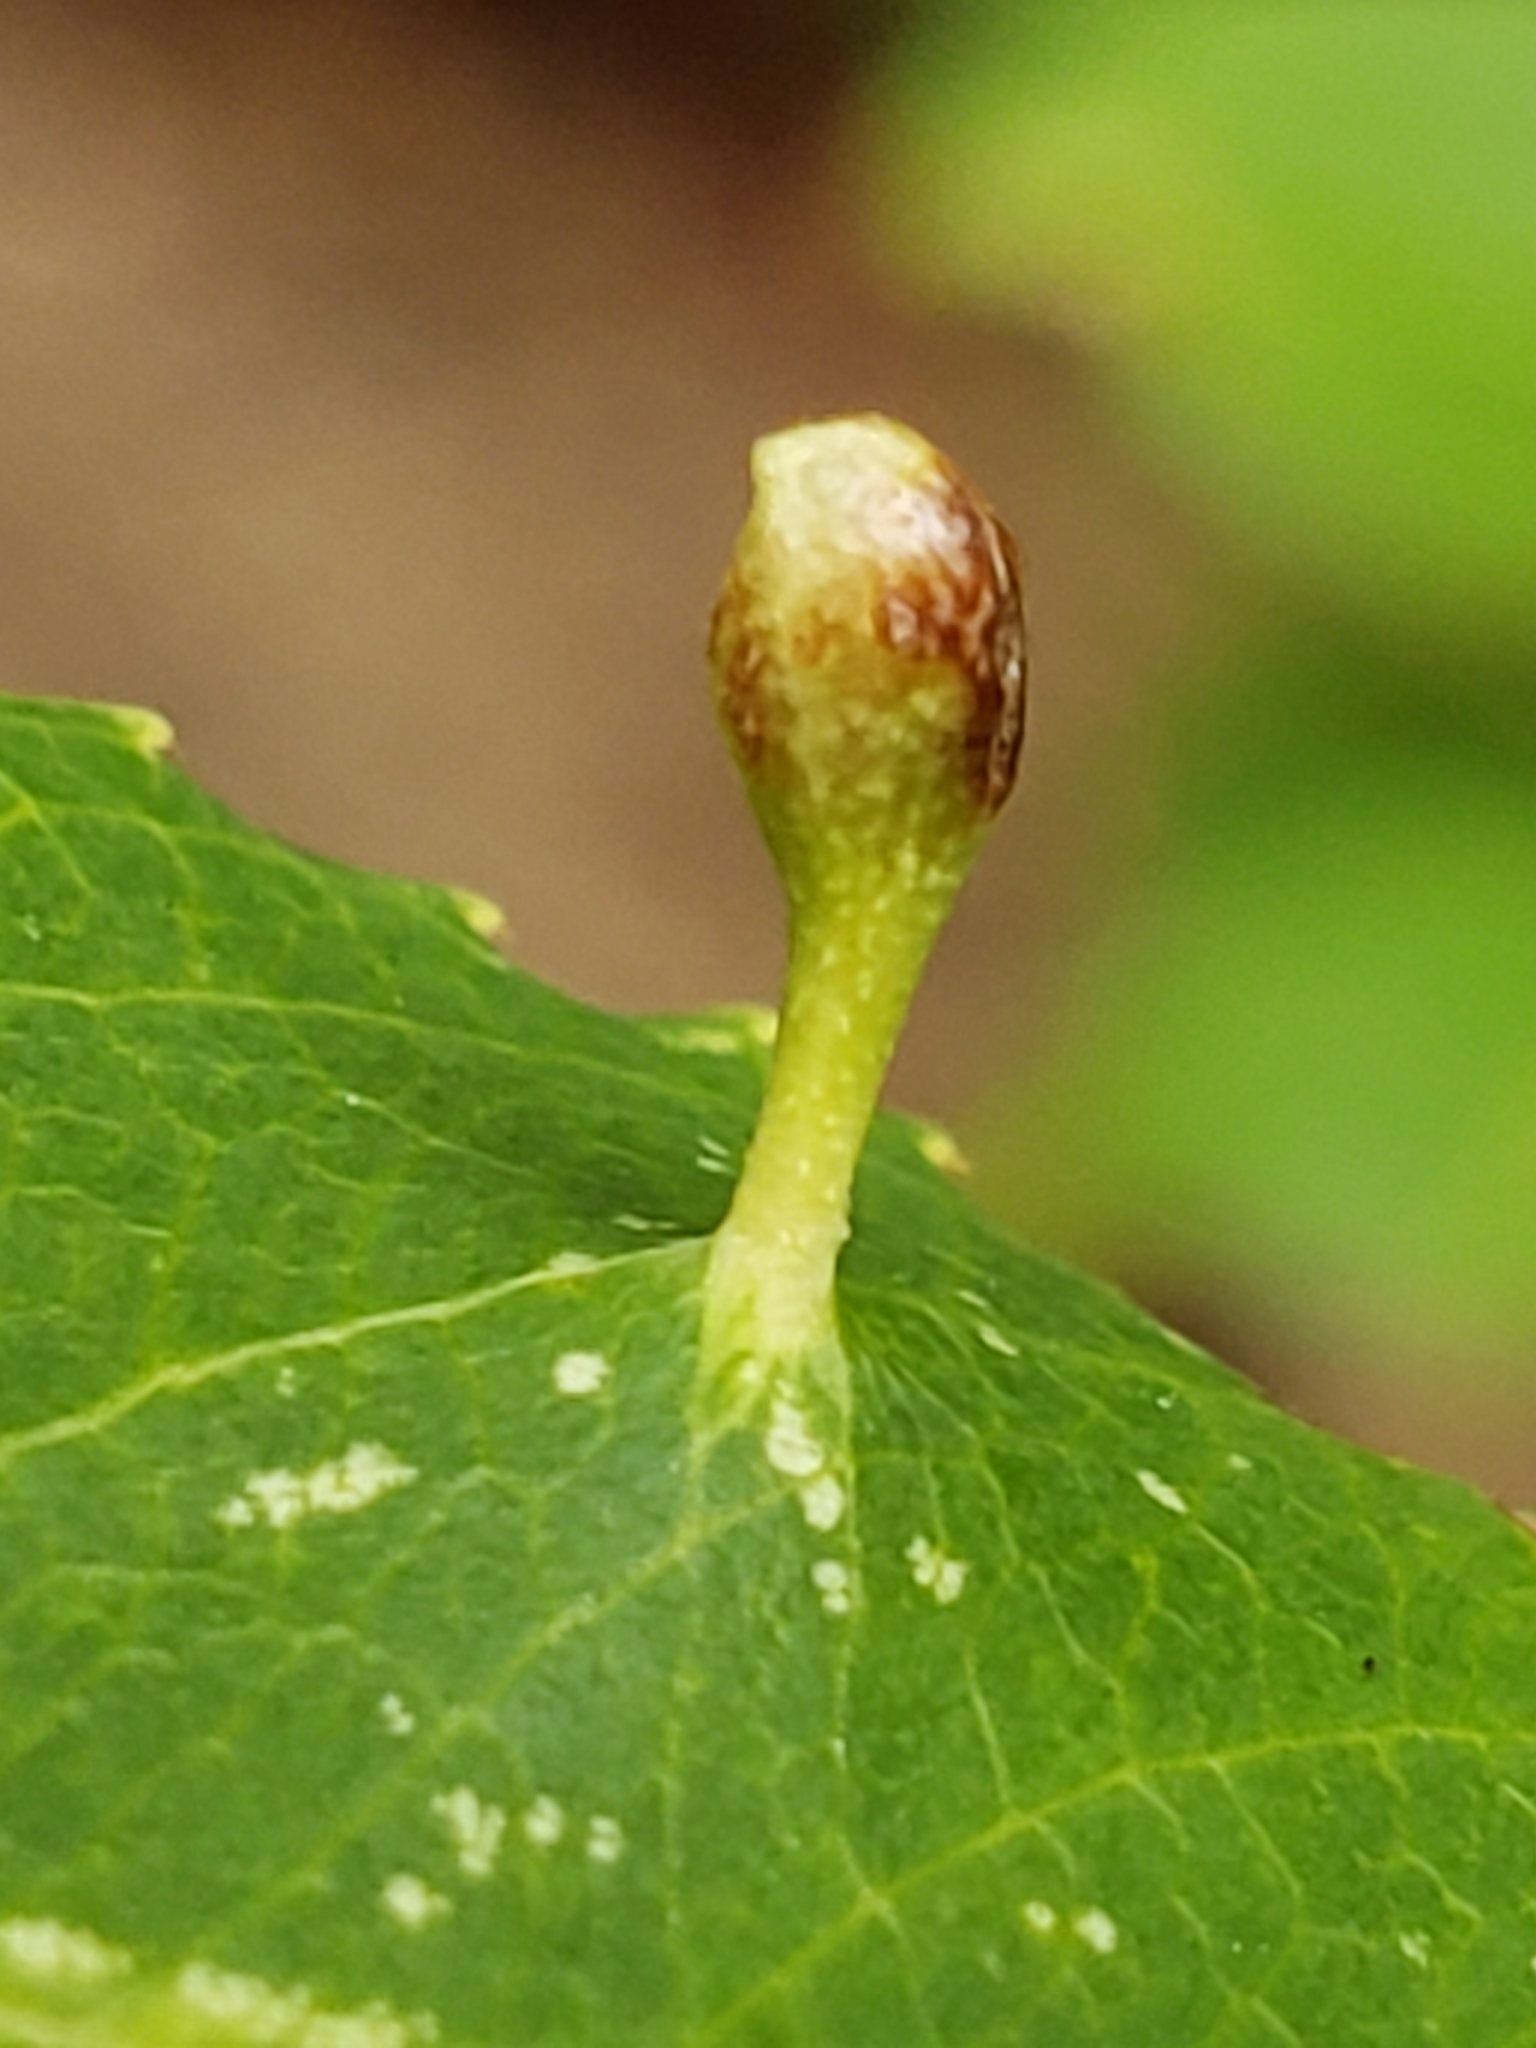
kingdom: Animalia
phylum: Arthropoda
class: Arachnida
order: Trombidiformes
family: Eriophyidae
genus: Eriophyes
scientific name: Eriophyes
